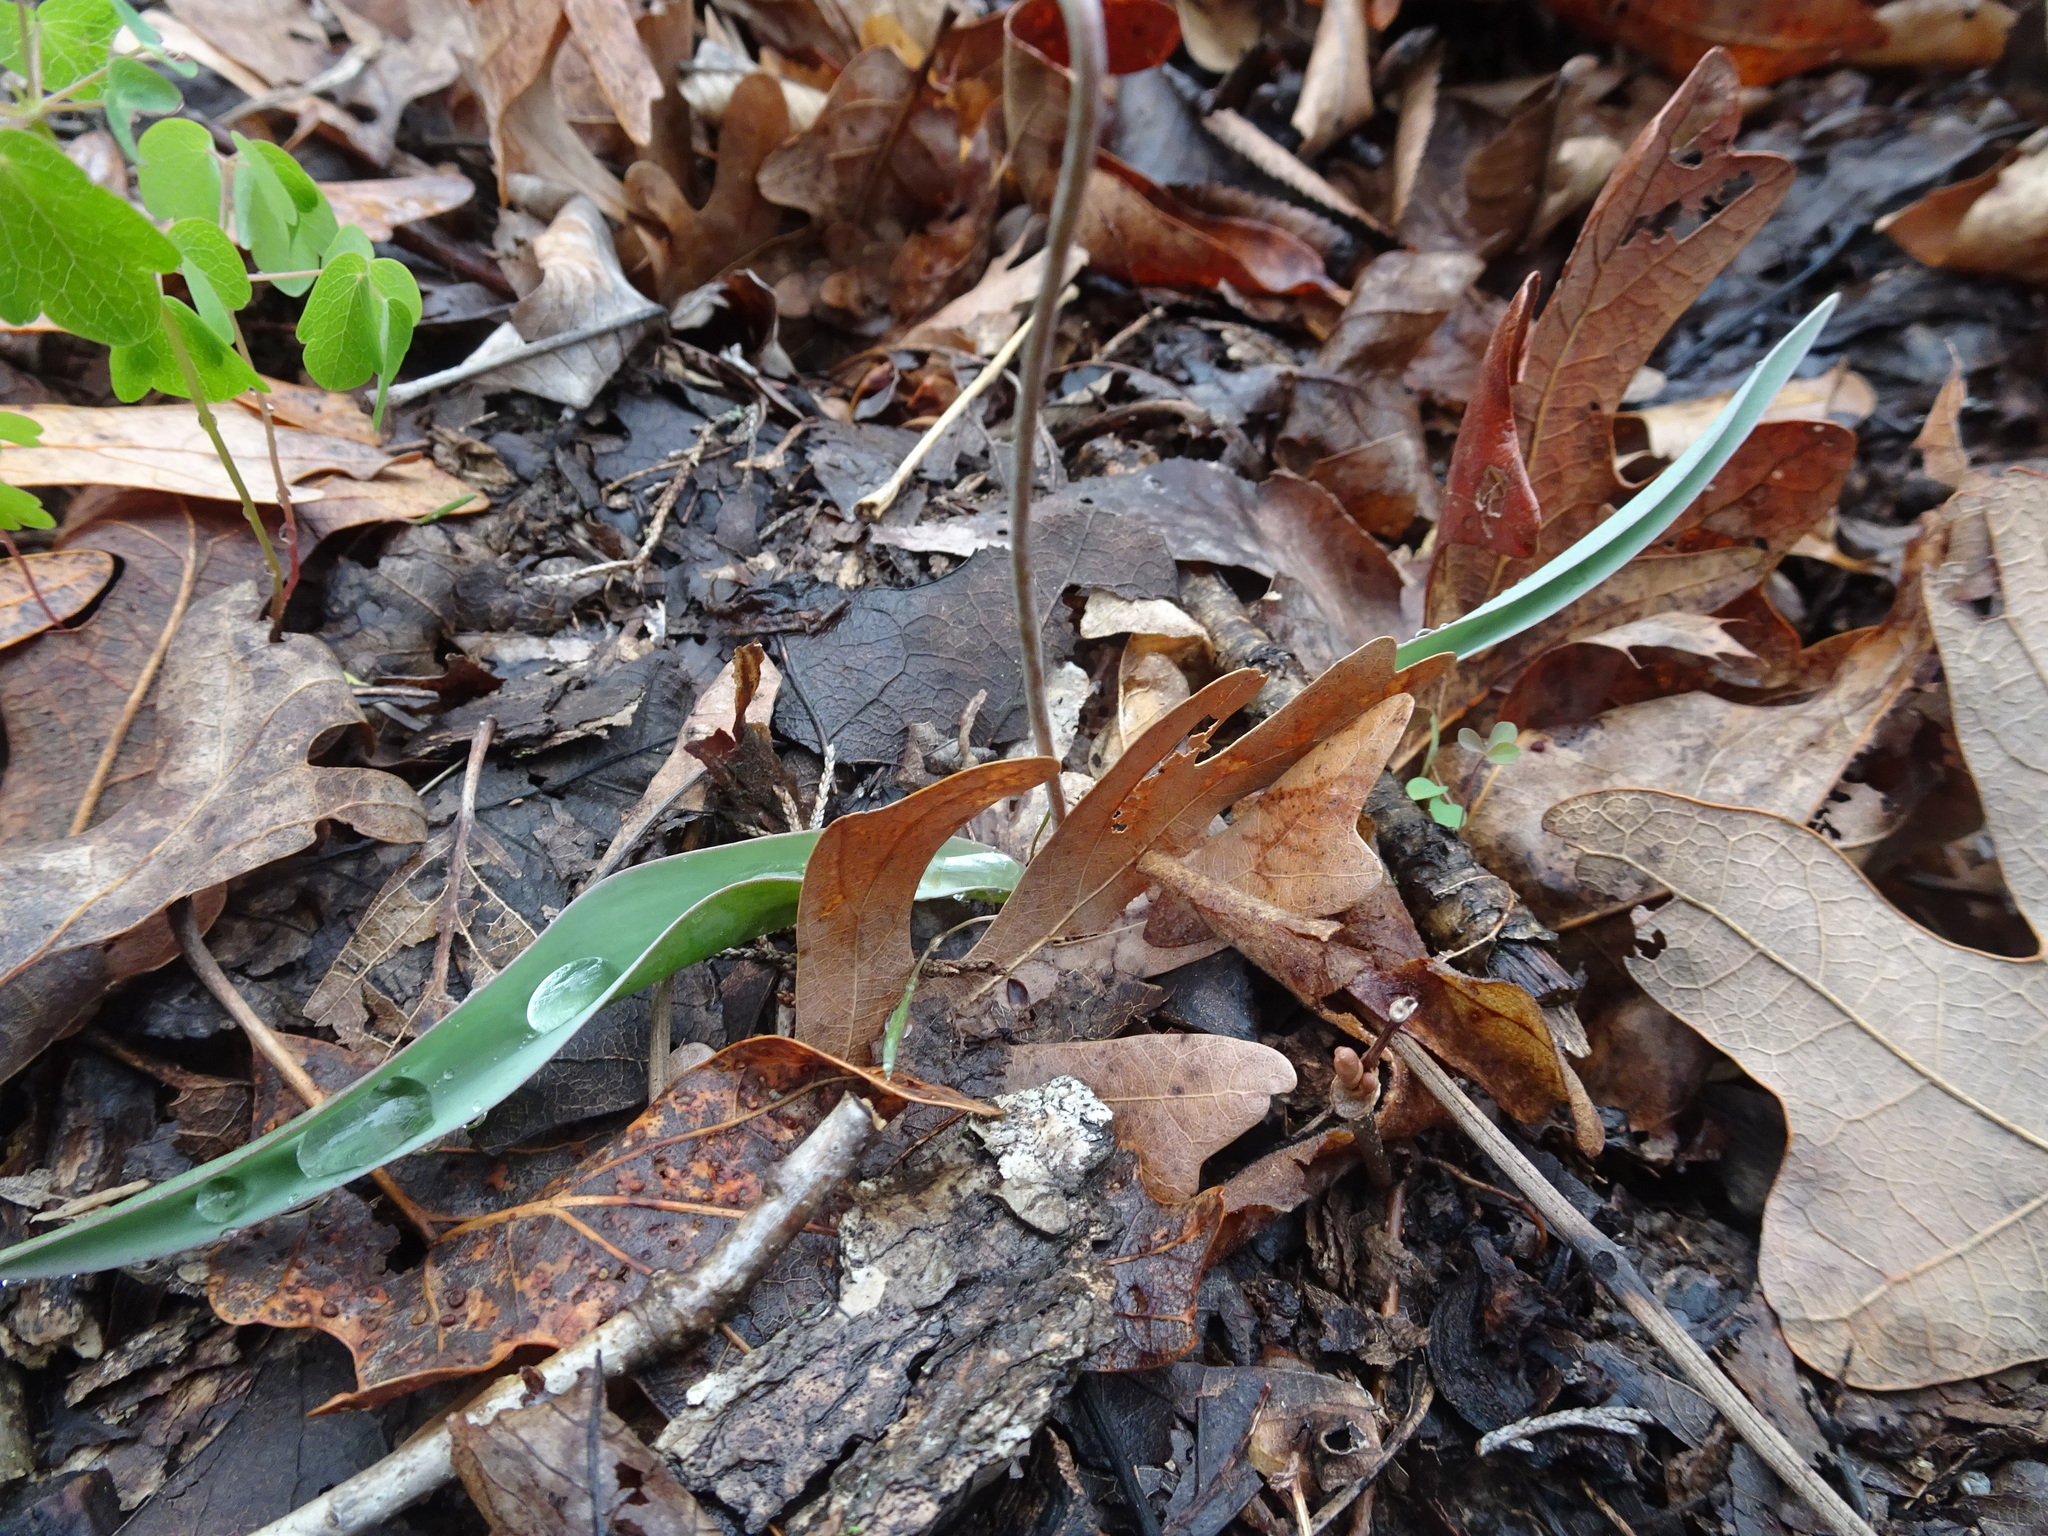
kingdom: Plantae
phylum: Tracheophyta
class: Liliopsida
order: Liliales
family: Liliaceae
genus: Erythronium
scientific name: Erythronium mesochoreum
